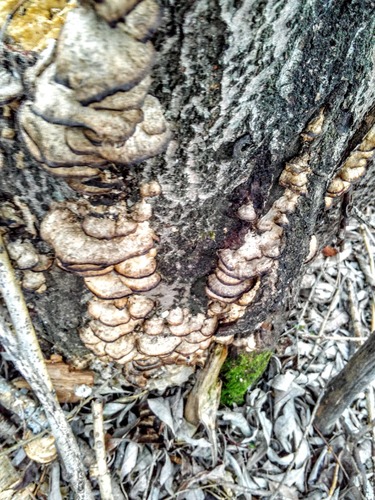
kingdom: Fungi
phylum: Basidiomycota
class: Agaricomycetes
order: Polyporales
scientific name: Polyporales
